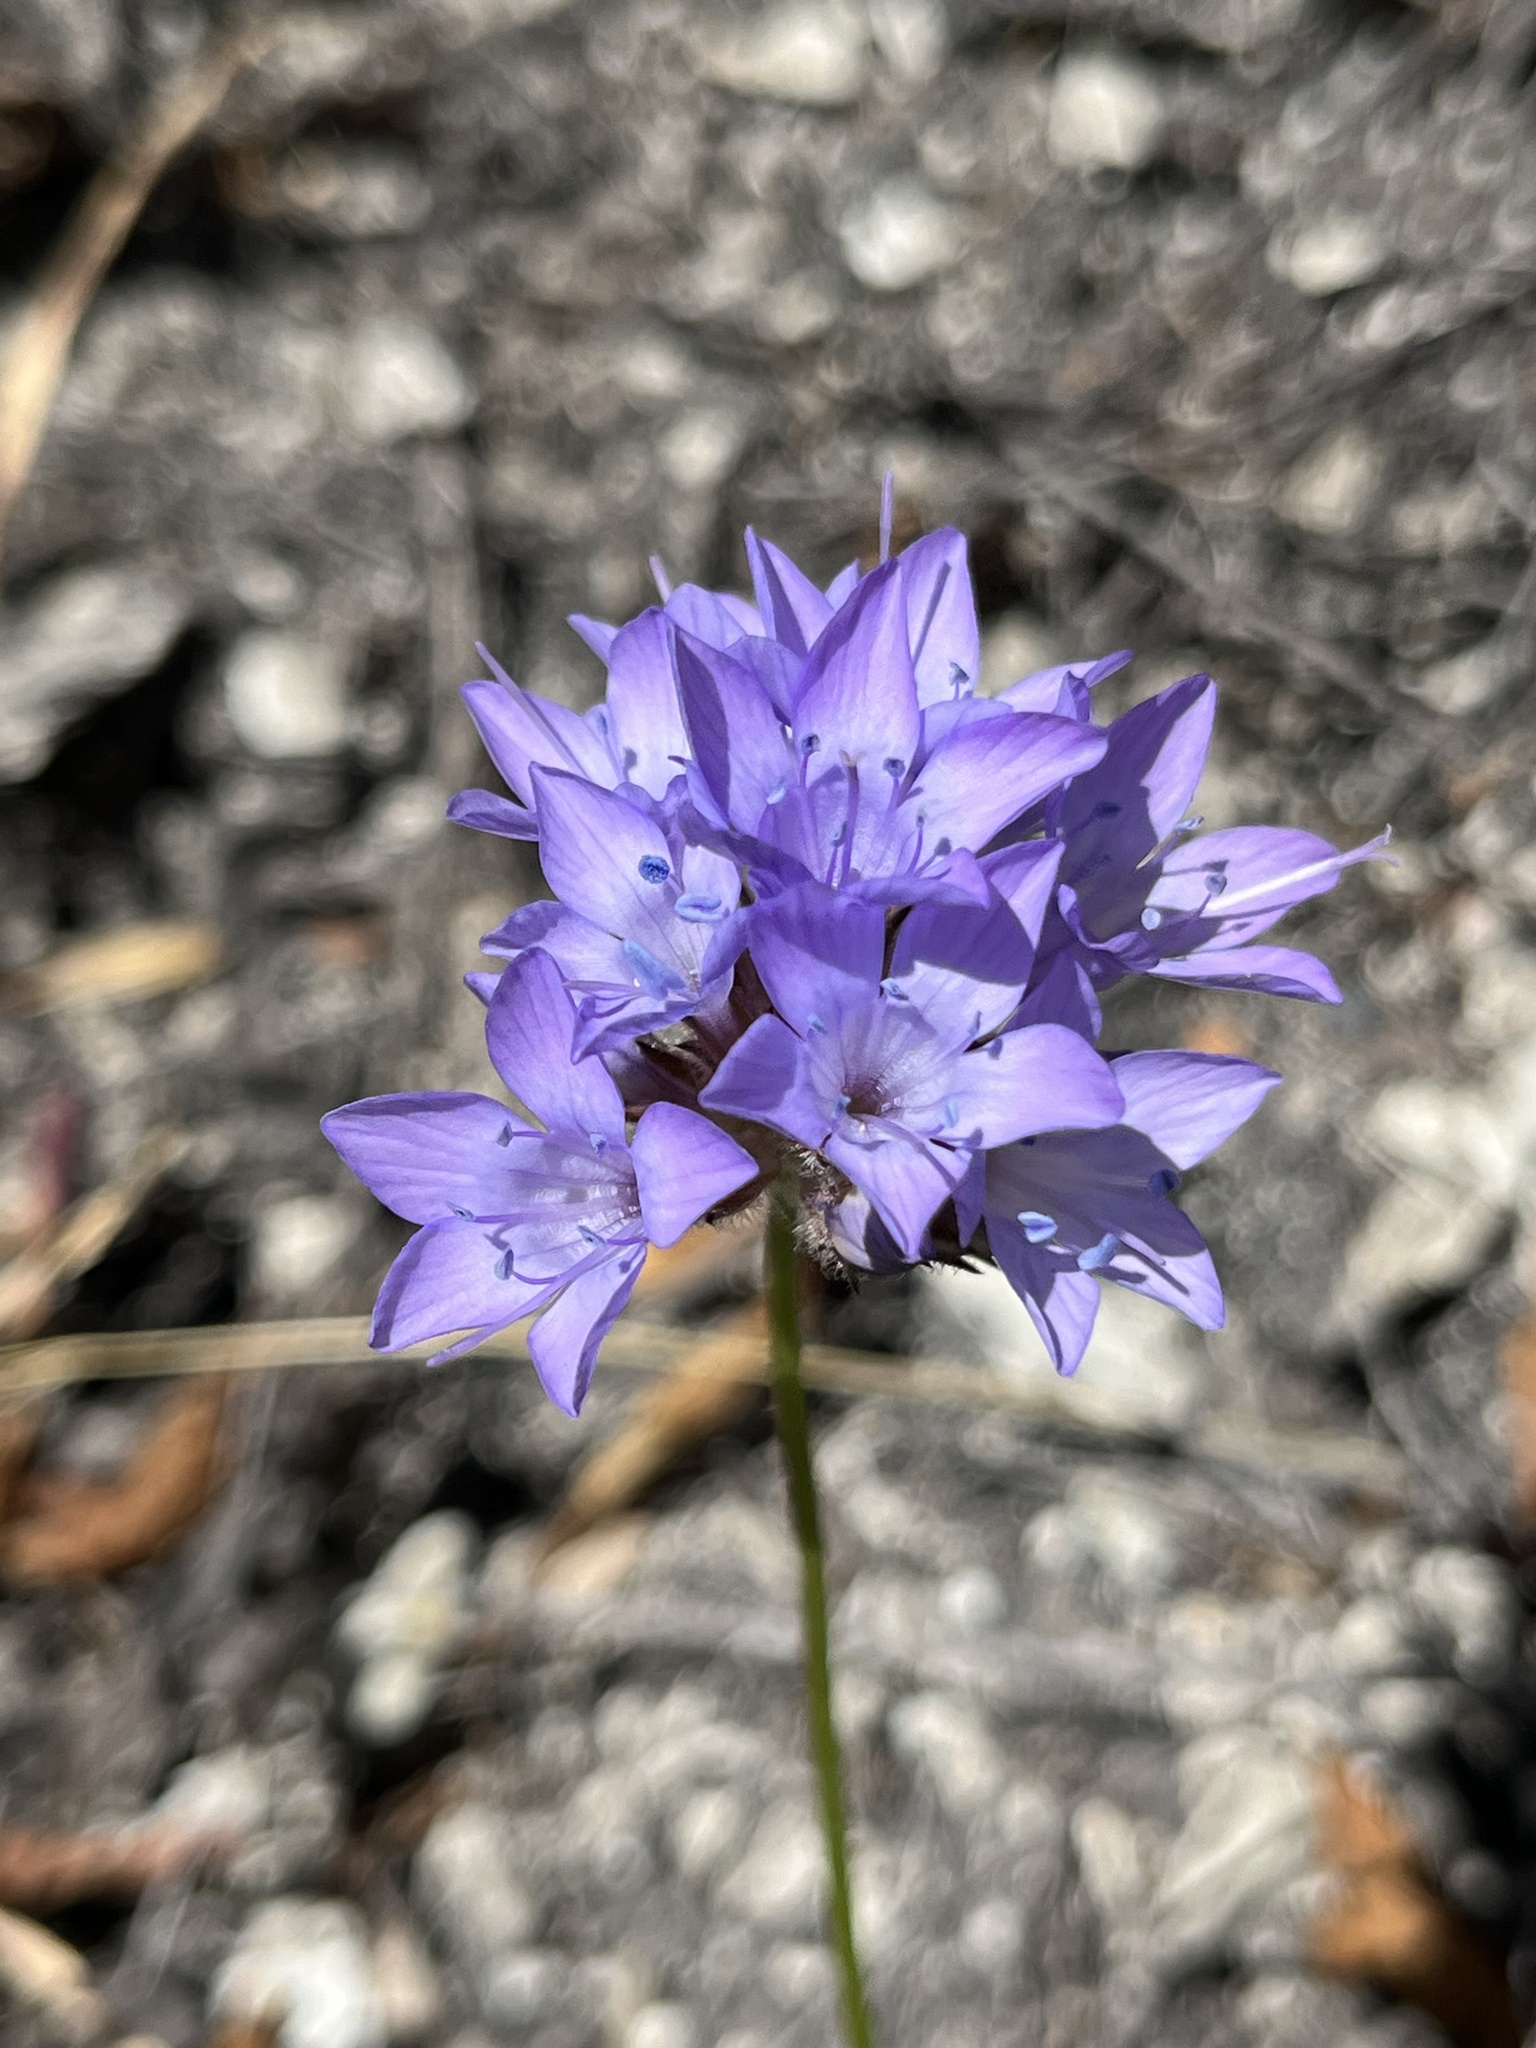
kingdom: Plantae
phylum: Tracheophyta
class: Magnoliopsida
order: Ericales
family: Polemoniaceae
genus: Gilia
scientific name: Gilia achilleifolia
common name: California gily-flower
